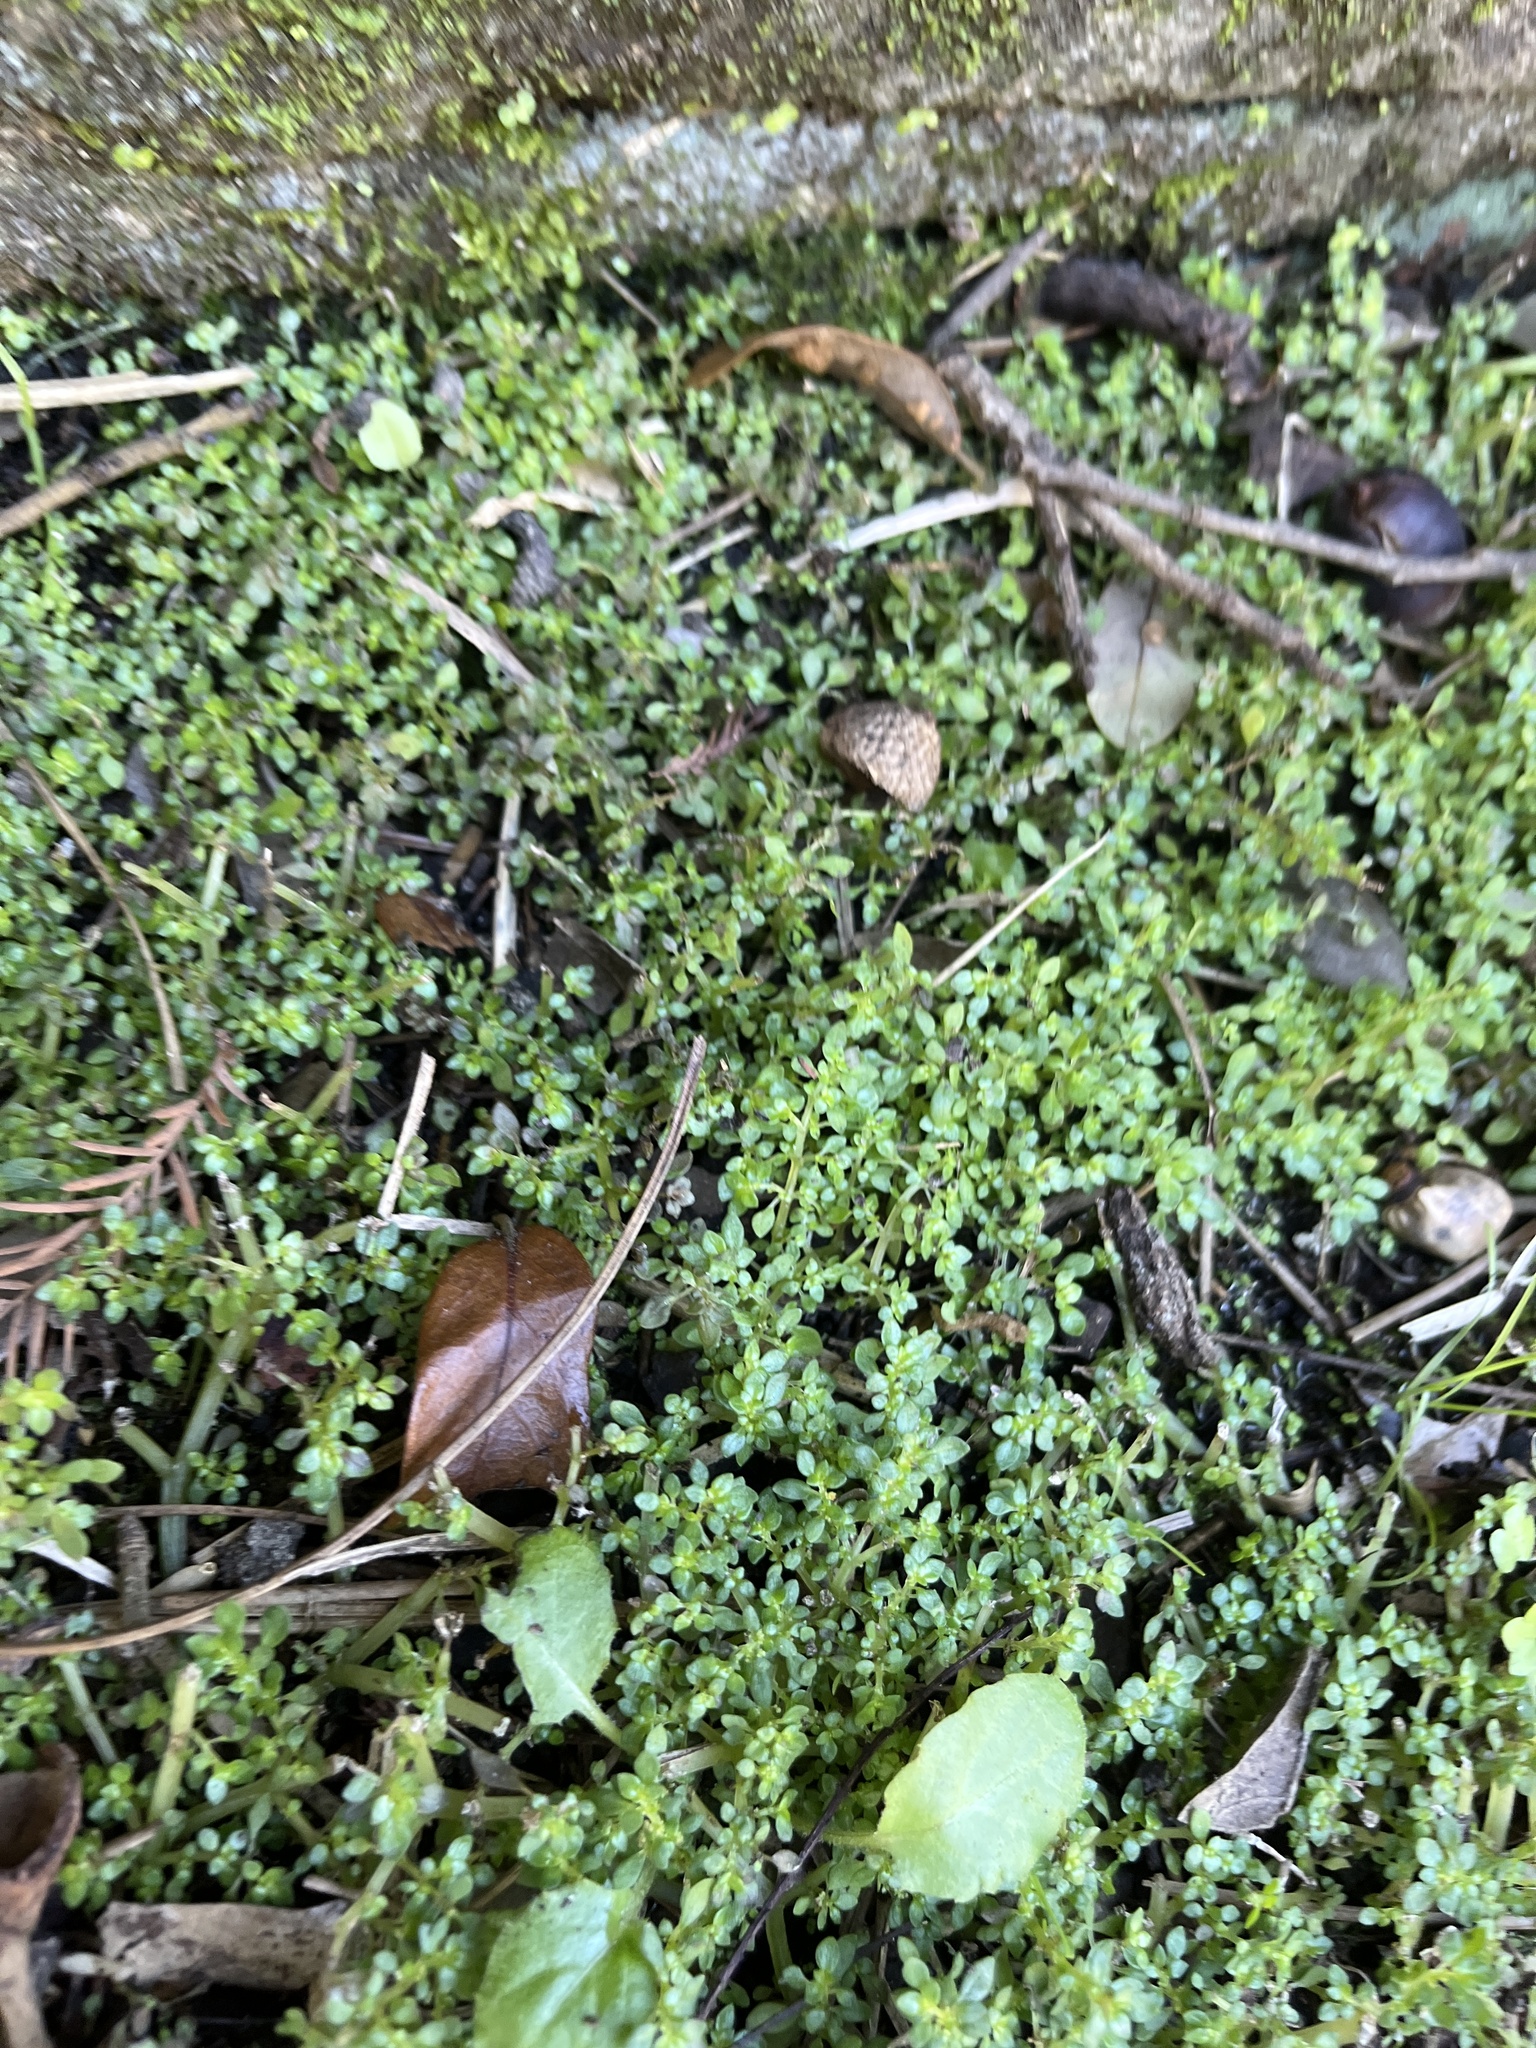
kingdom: Plantae
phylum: Tracheophyta
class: Magnoliopsida
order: Rosales
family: Urticaceae
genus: Pilea
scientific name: Pilea microphylla
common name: Artillery-plant
